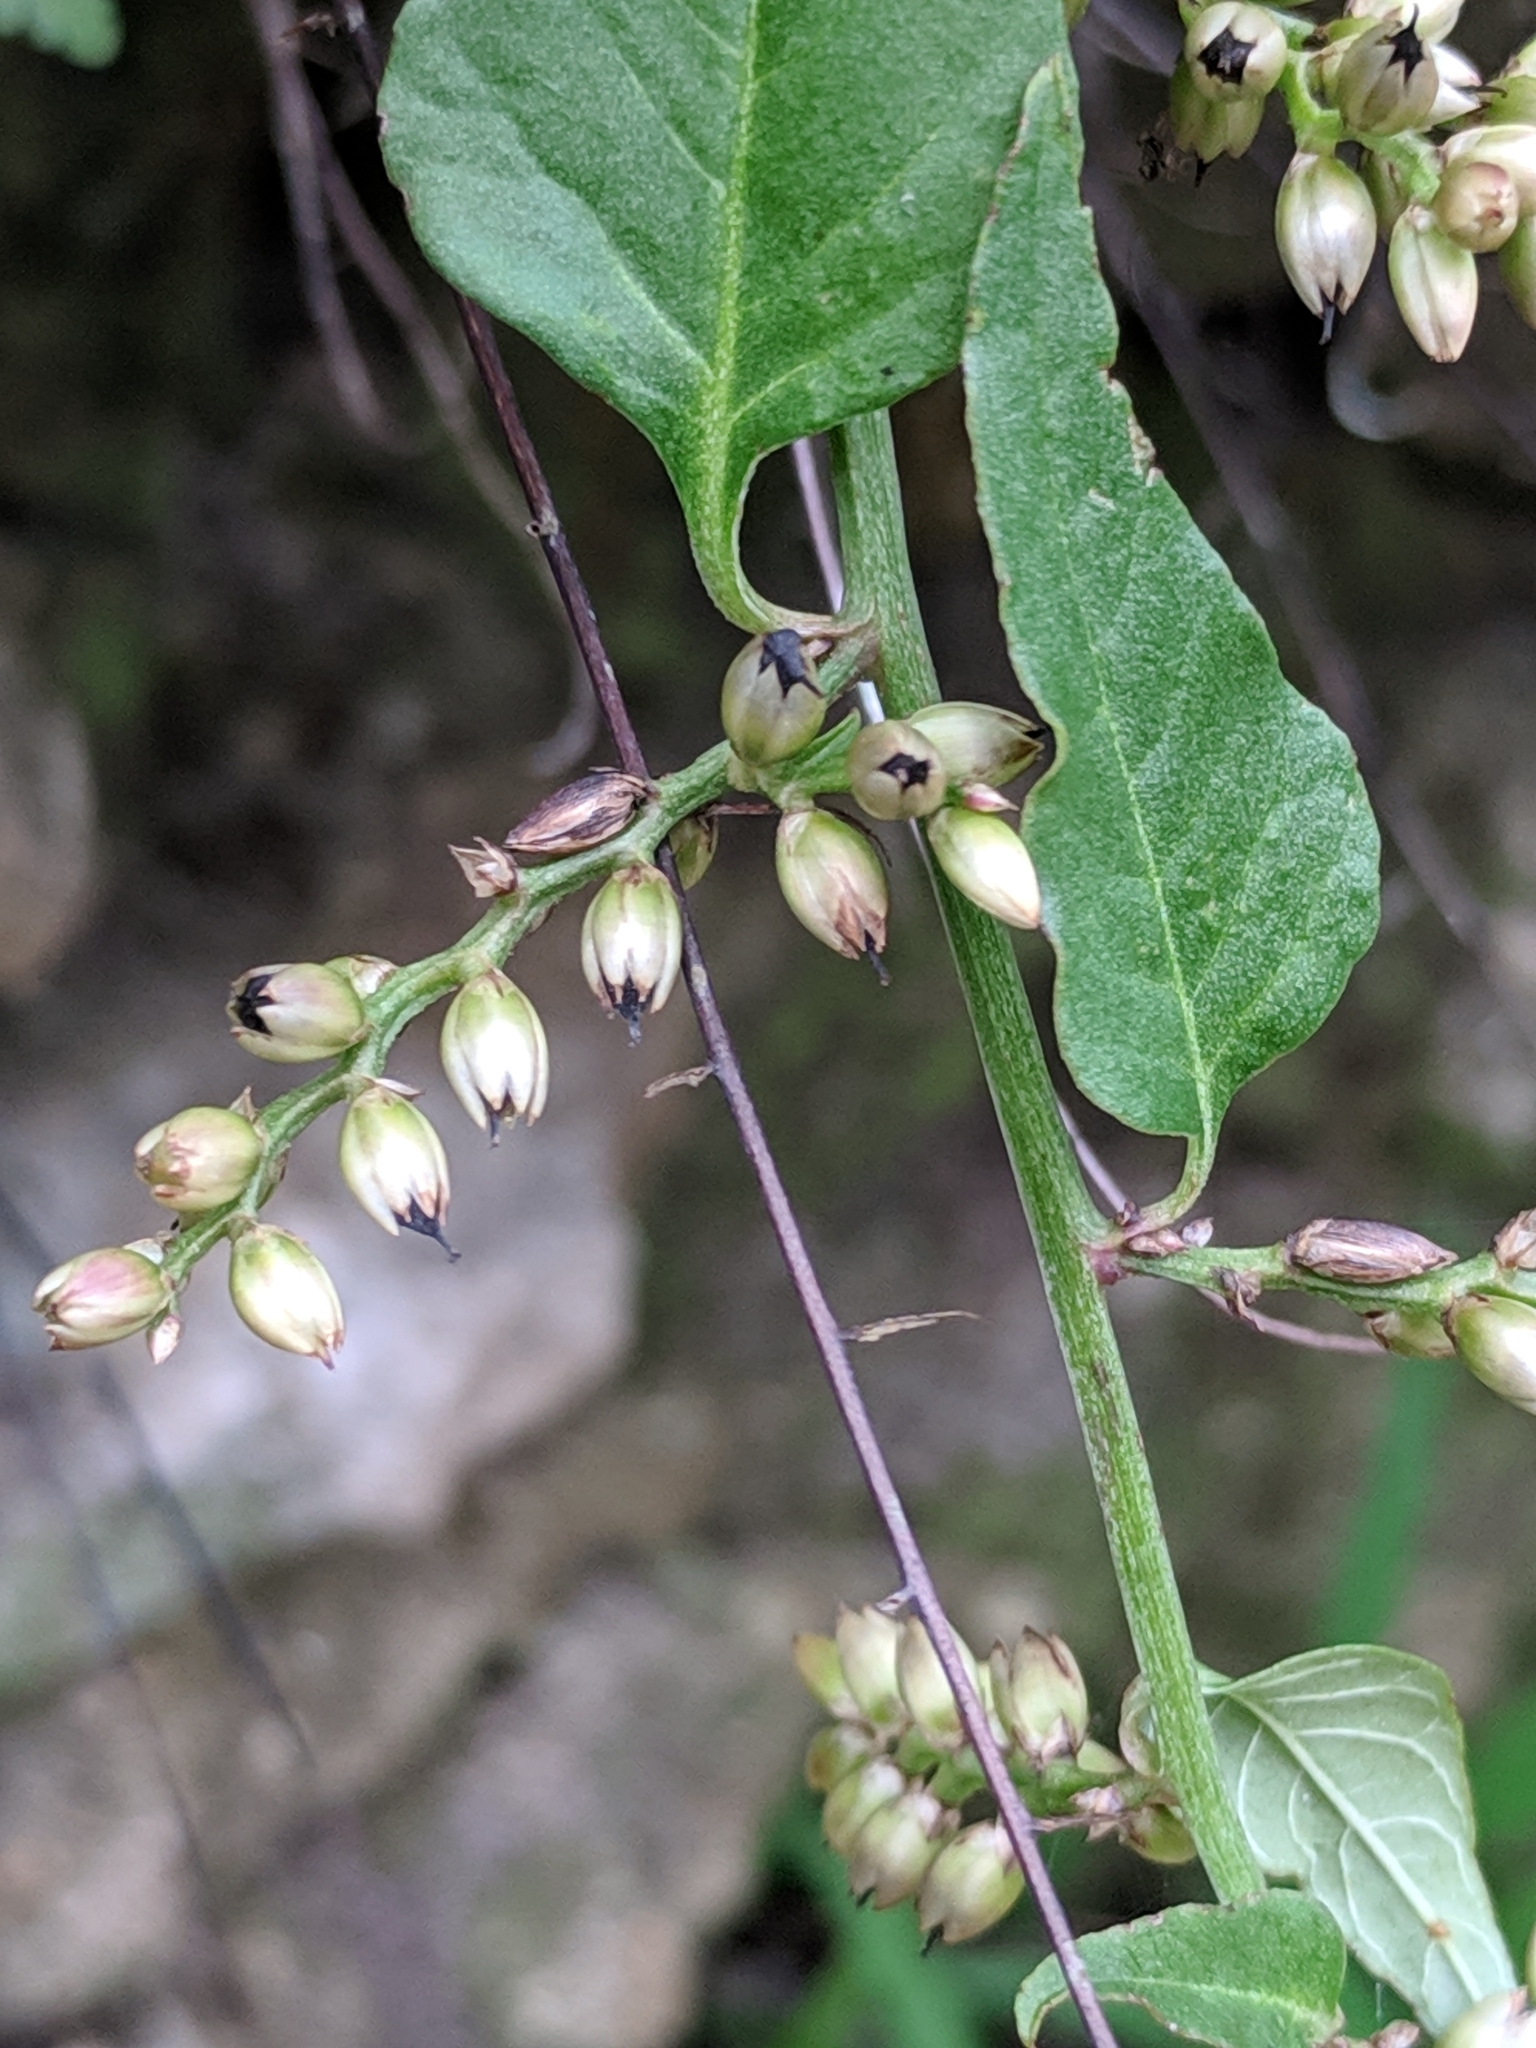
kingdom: Plantae
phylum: Tracheophyta
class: Magnoliopsida
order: Caryophyllales
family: Amaranthaceae
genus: Celosia
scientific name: Celosia nitida
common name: West indian cock's comb
